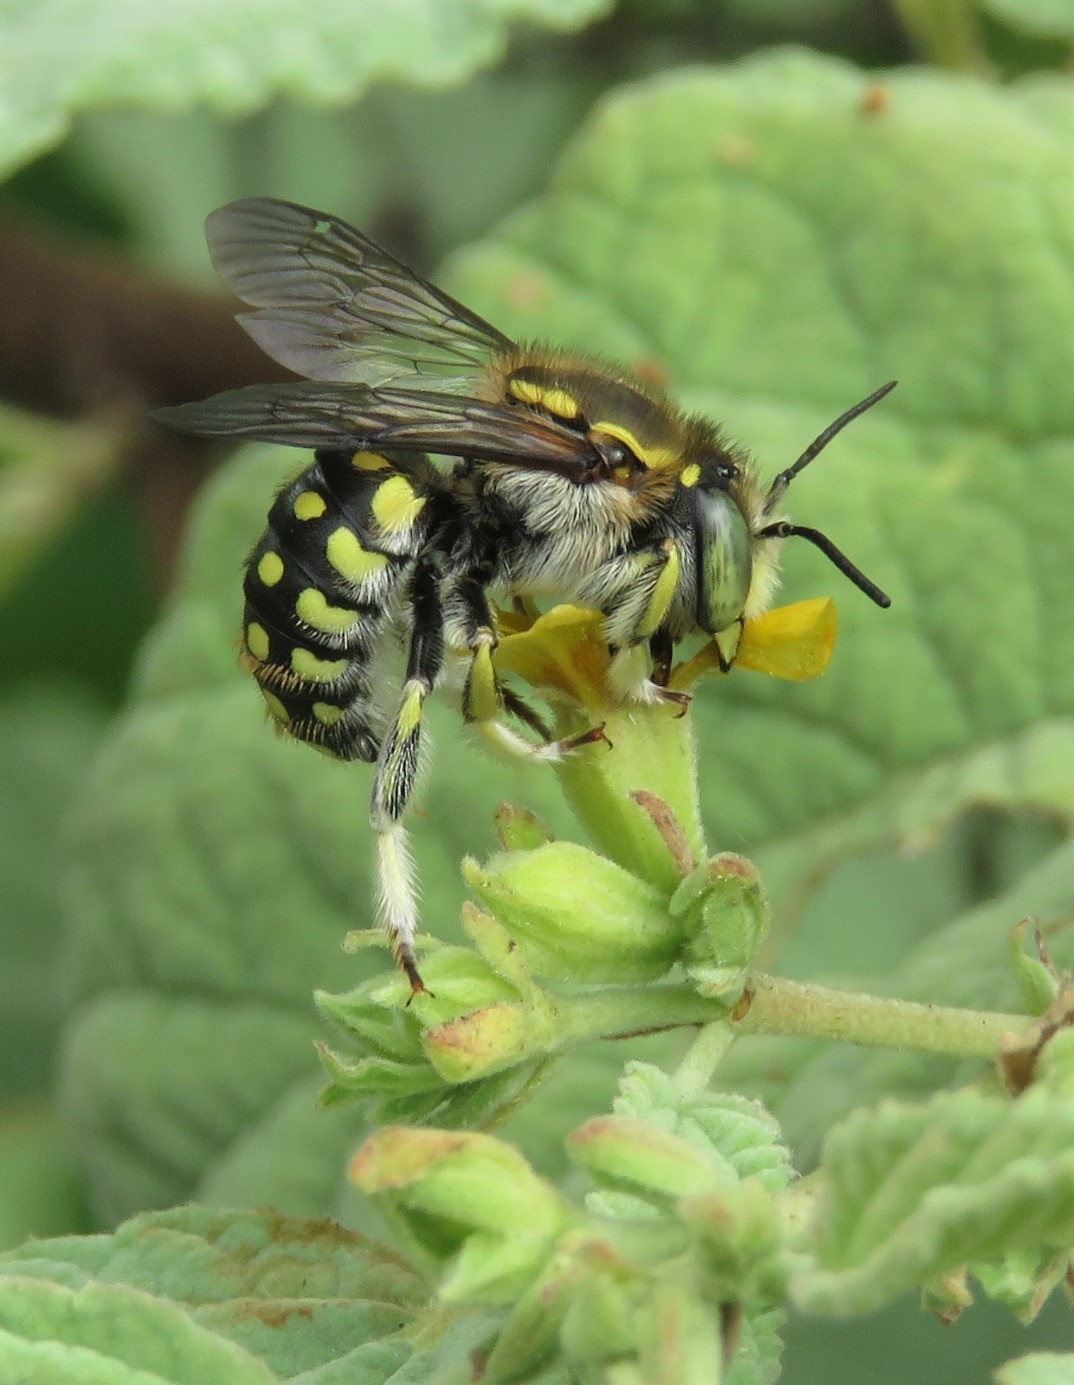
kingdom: Animalia
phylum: Arthropoda
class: Insecta
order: Hymenoptera
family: Megachilidae
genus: Anthidium
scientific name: Anthidium vigintiduopunctatum
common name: Dwarf bee of floreana
